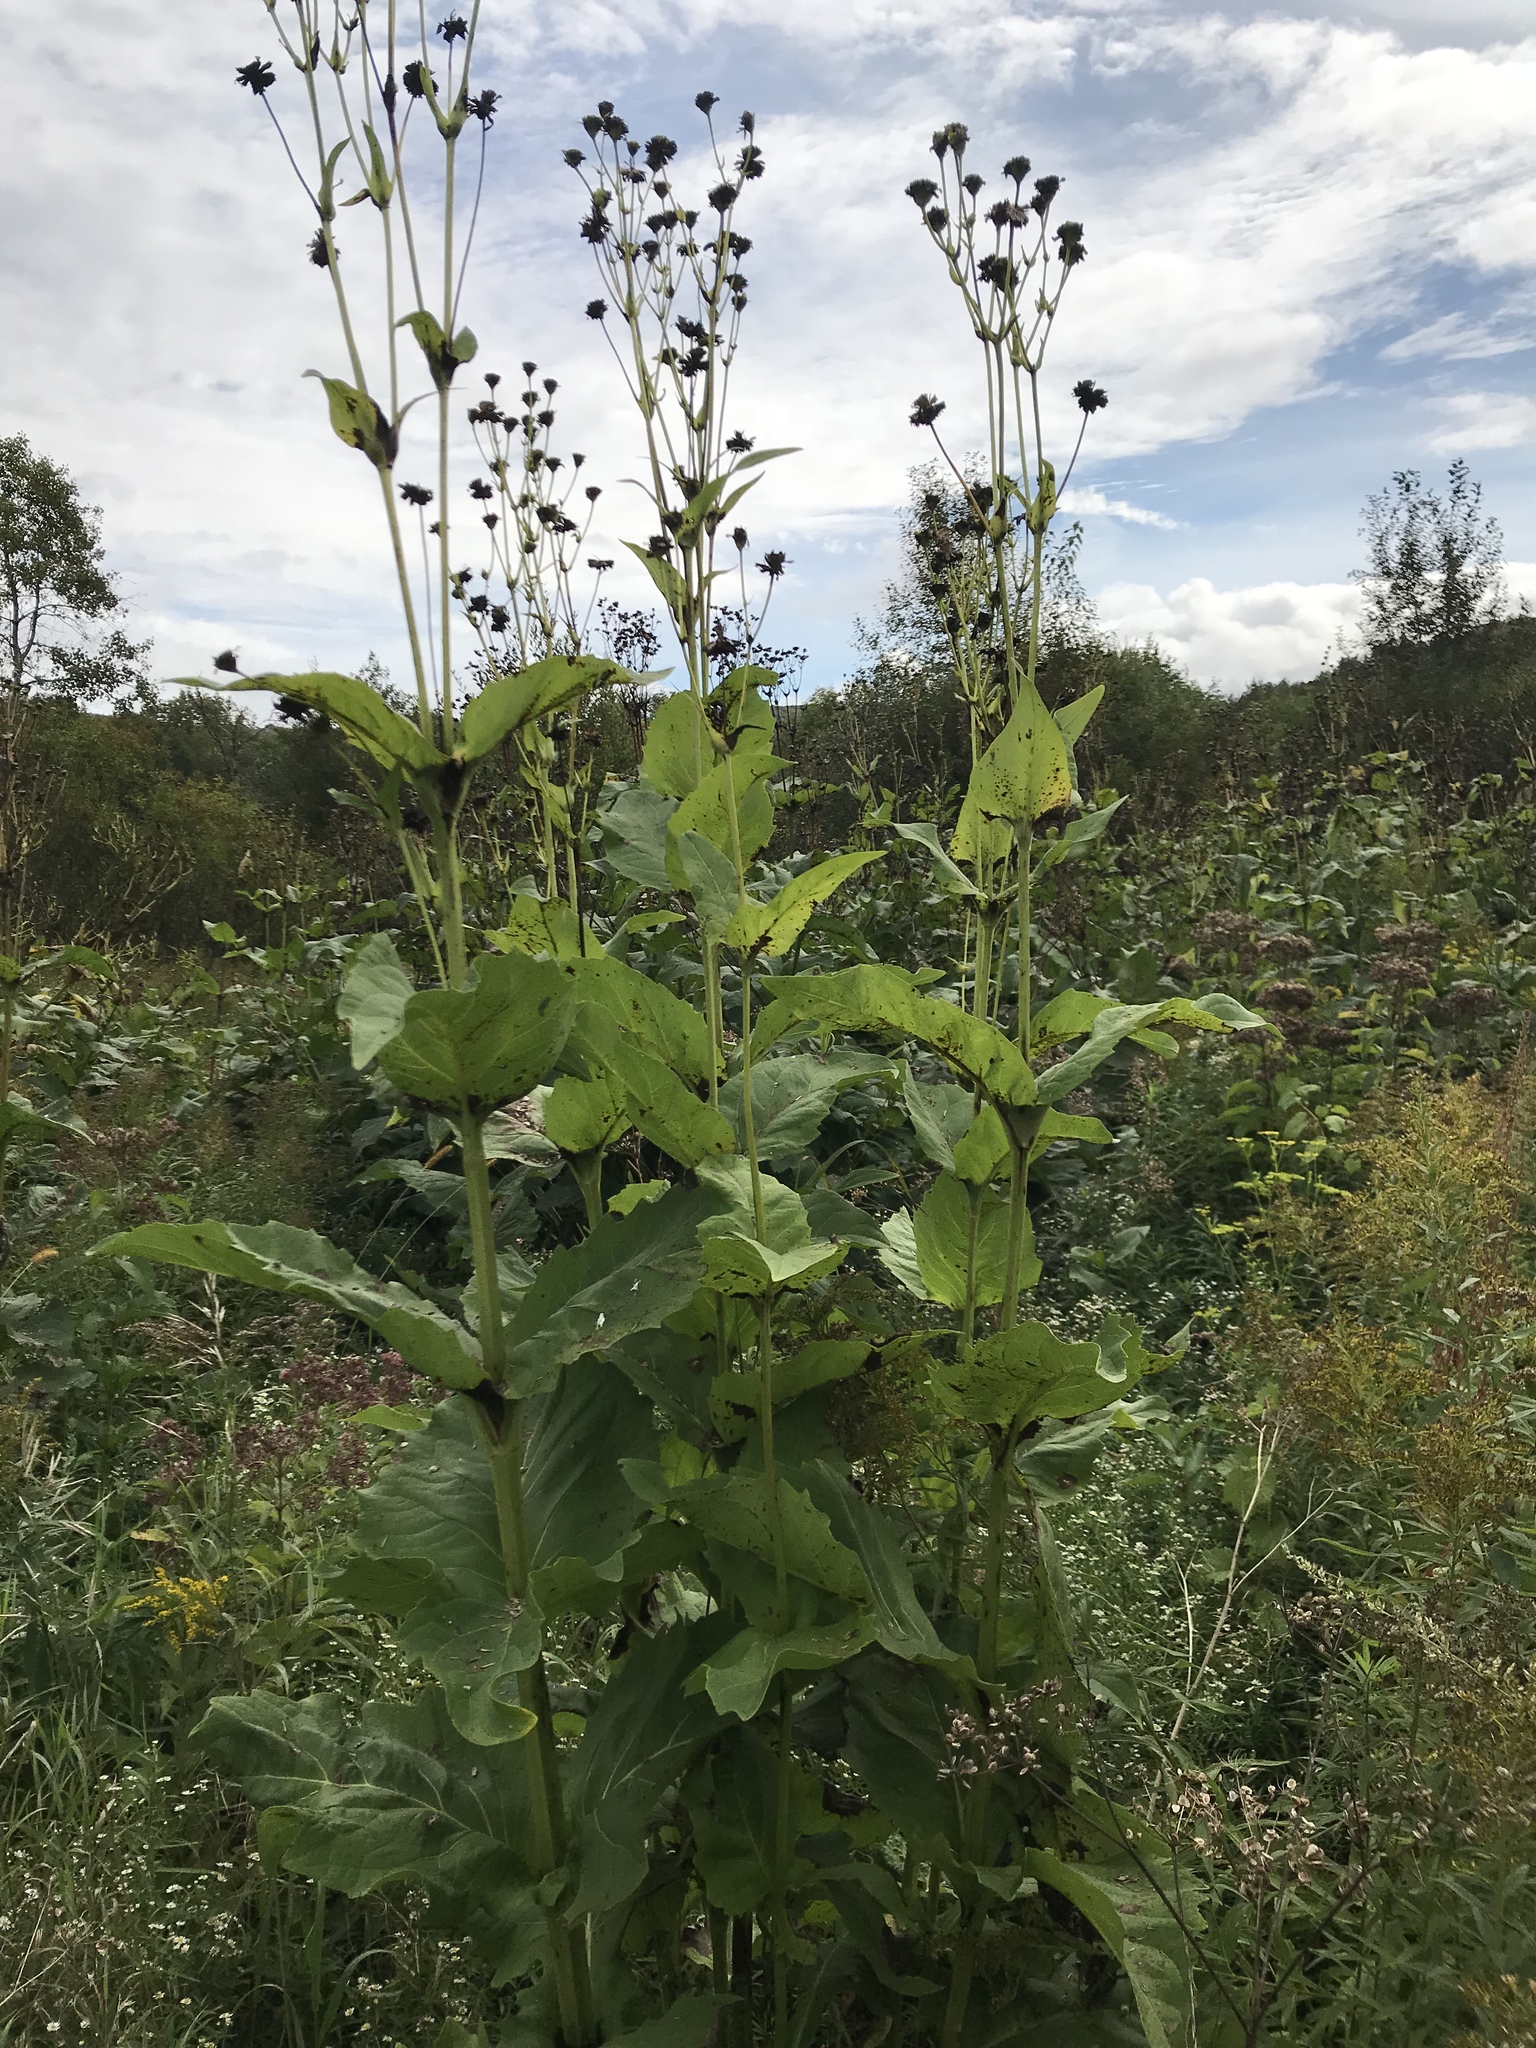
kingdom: Plantae
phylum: Tracheophyta
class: Magnoliopsida
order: Asterales
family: Asteraceae
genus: Silphium
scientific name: Silphium perfoliatum
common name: Cup-plant
